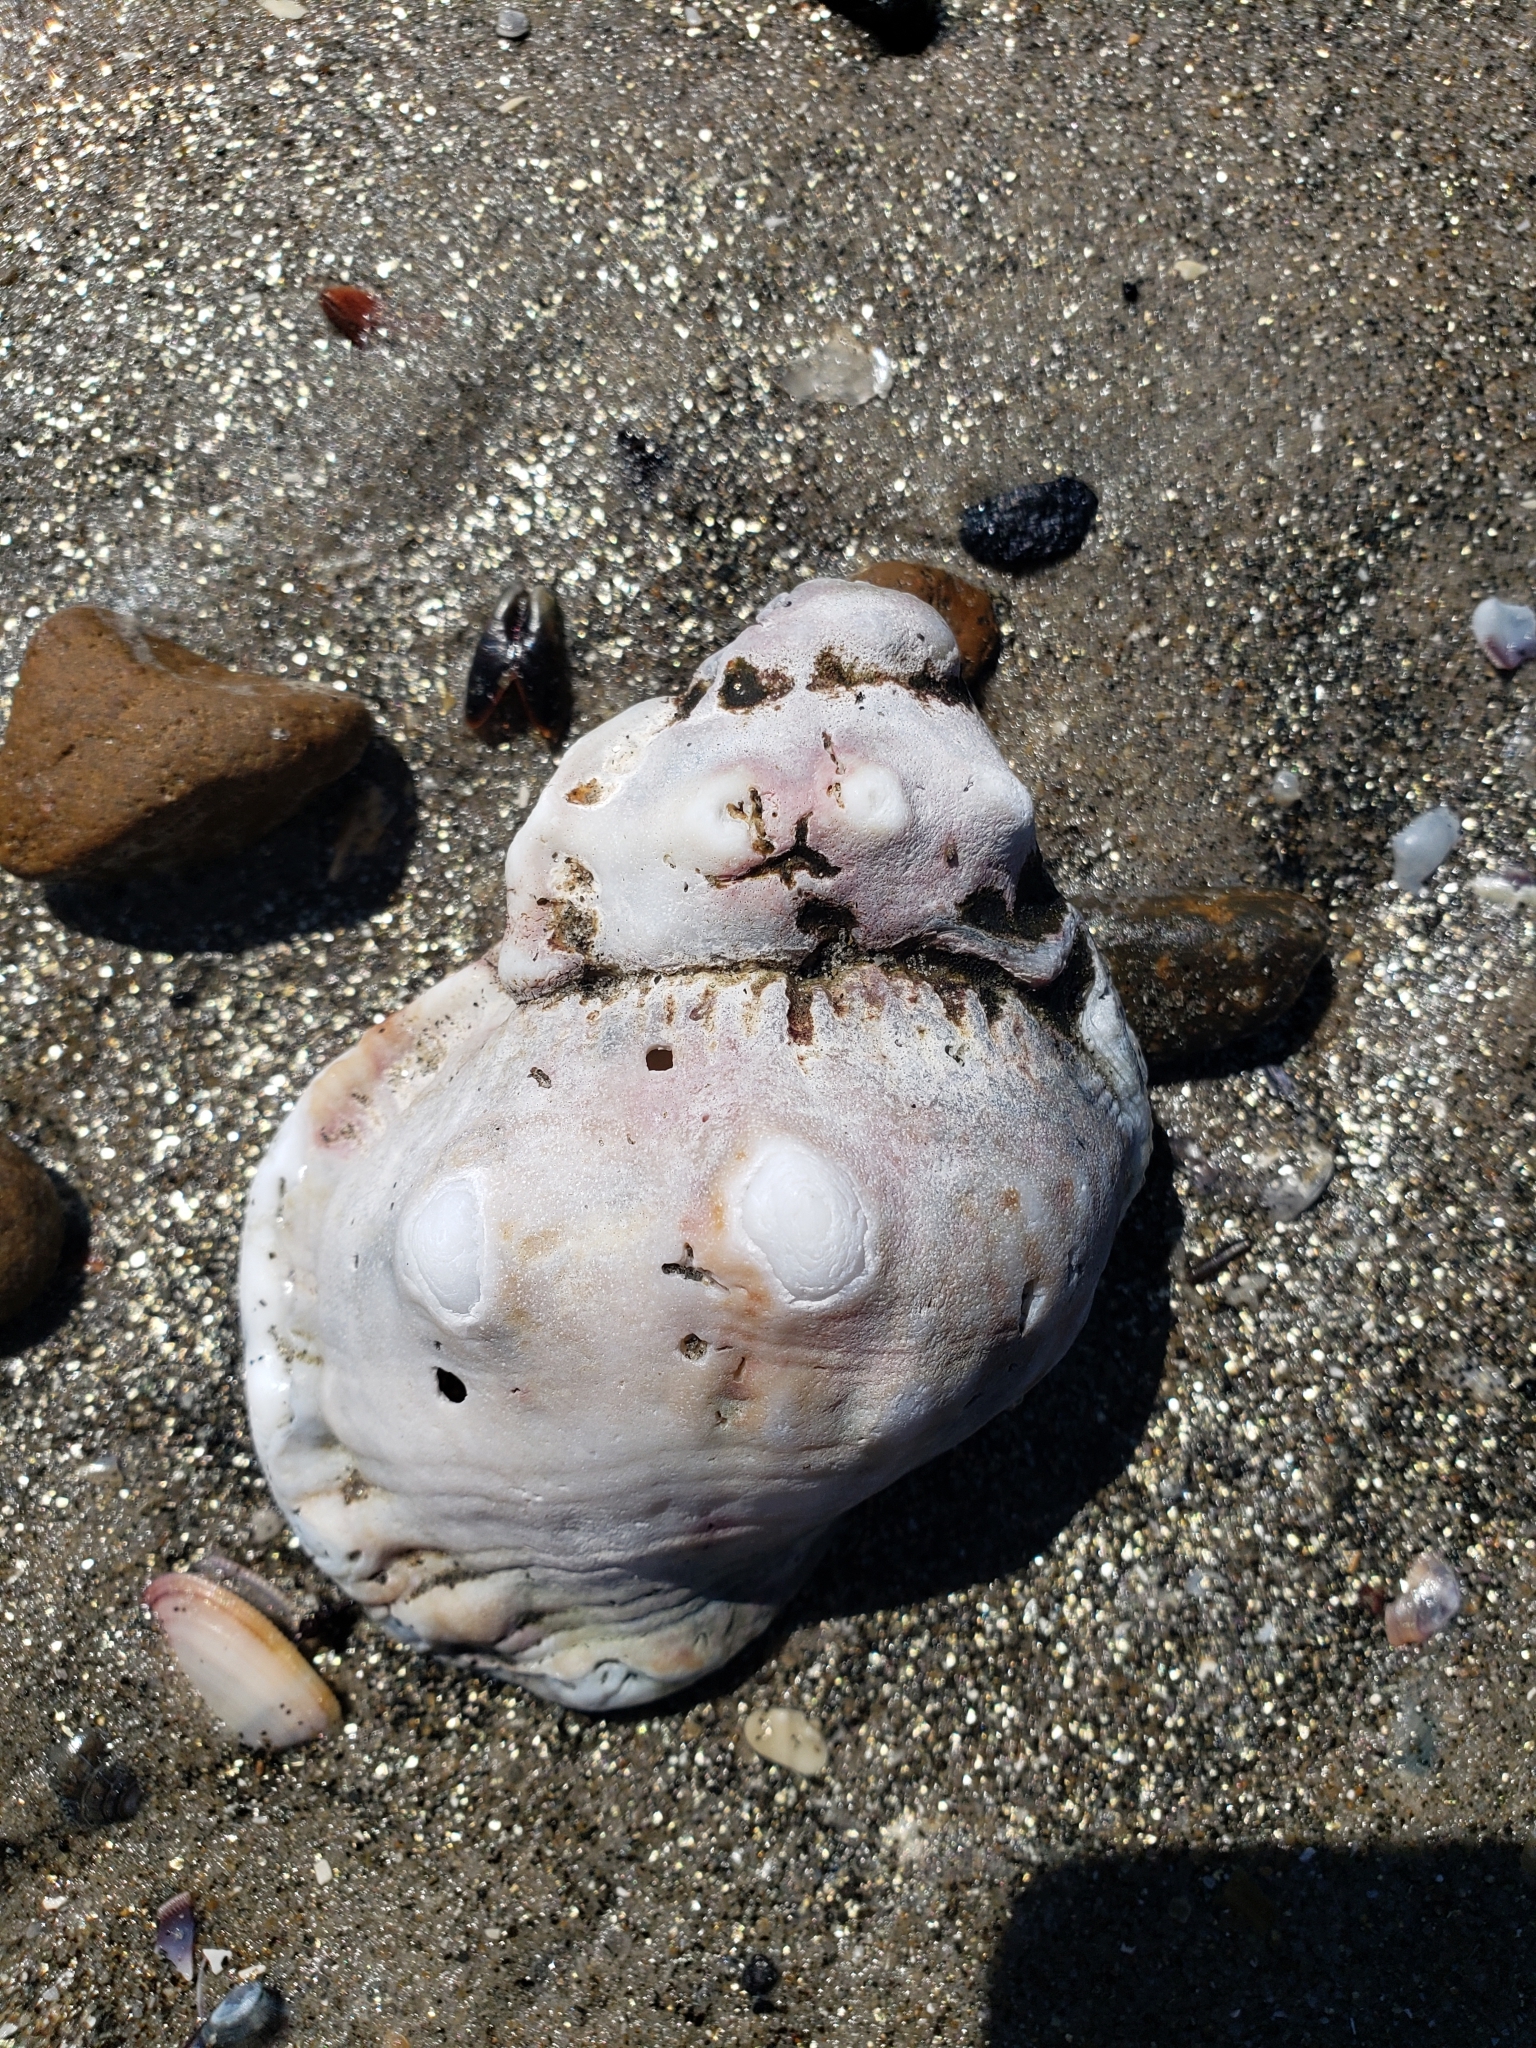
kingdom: Animalia
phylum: Mollusca
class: Gastropoda
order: Littorinimorpha
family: Bursidae
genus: Crossata
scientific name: Crossata californica
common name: California frogsnail
